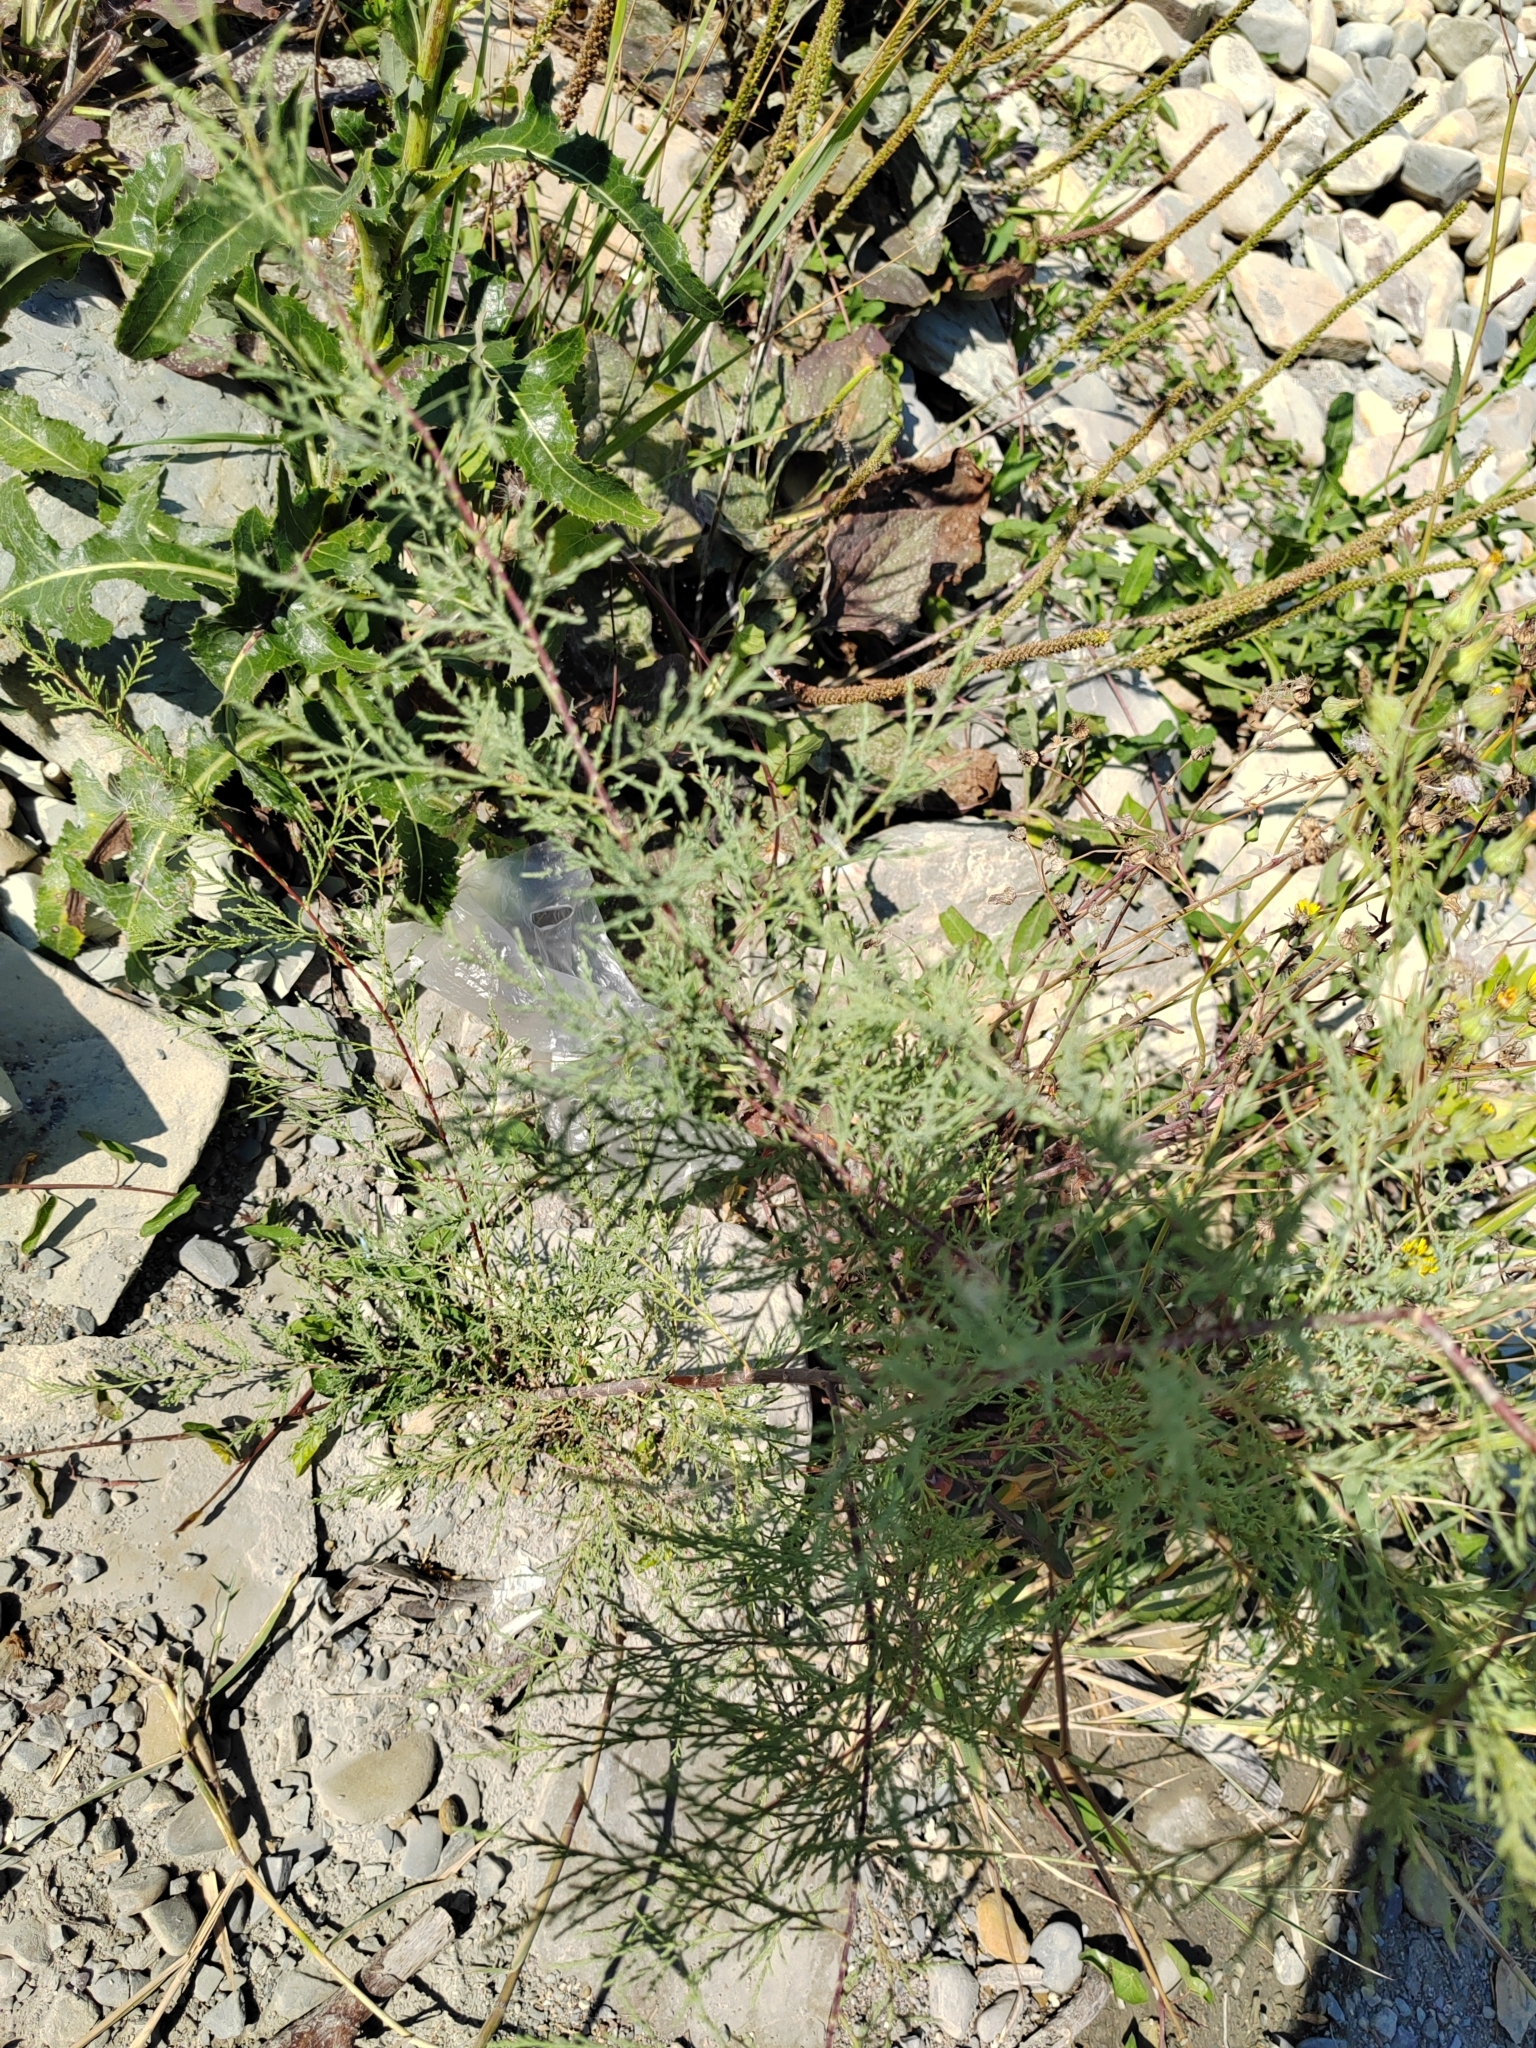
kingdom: Plantae
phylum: Tracheophyta
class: Magnoliopsida
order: Caryophyllales
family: Tamaricaceae
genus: Tamarix
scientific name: Tamarix ramosissima
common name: Pink tamarisk
